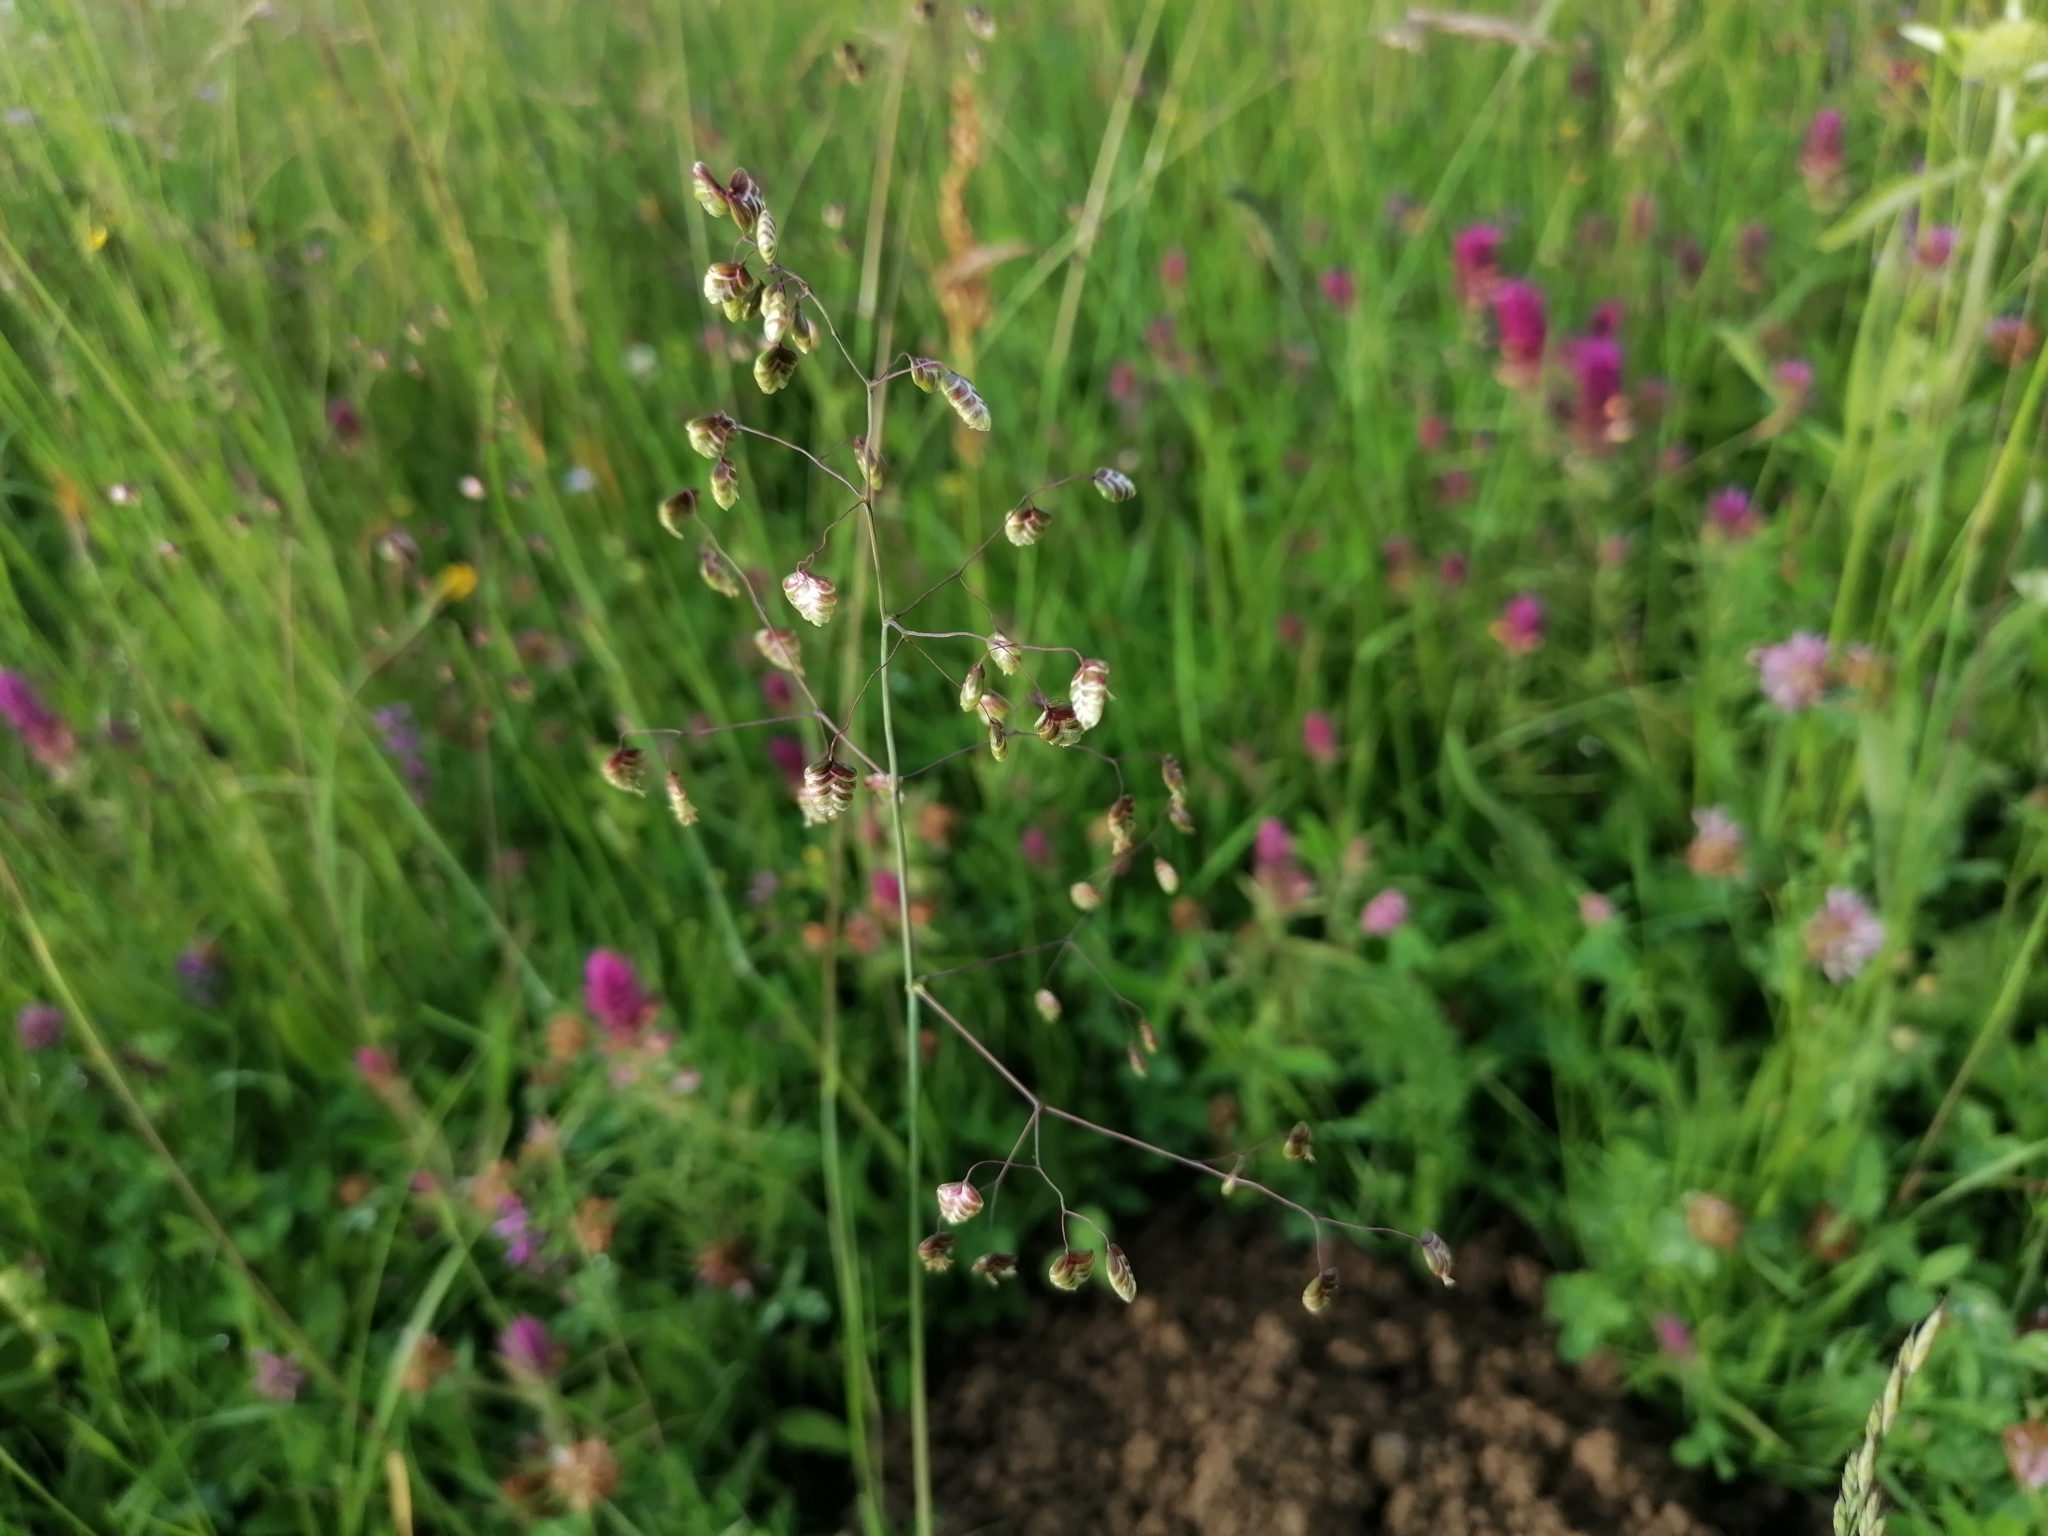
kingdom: Plantae
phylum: Tracheophyta
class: Liliopsida
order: Poales
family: Poaceae
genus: Briza
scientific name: Briza media
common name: Quaking grass
